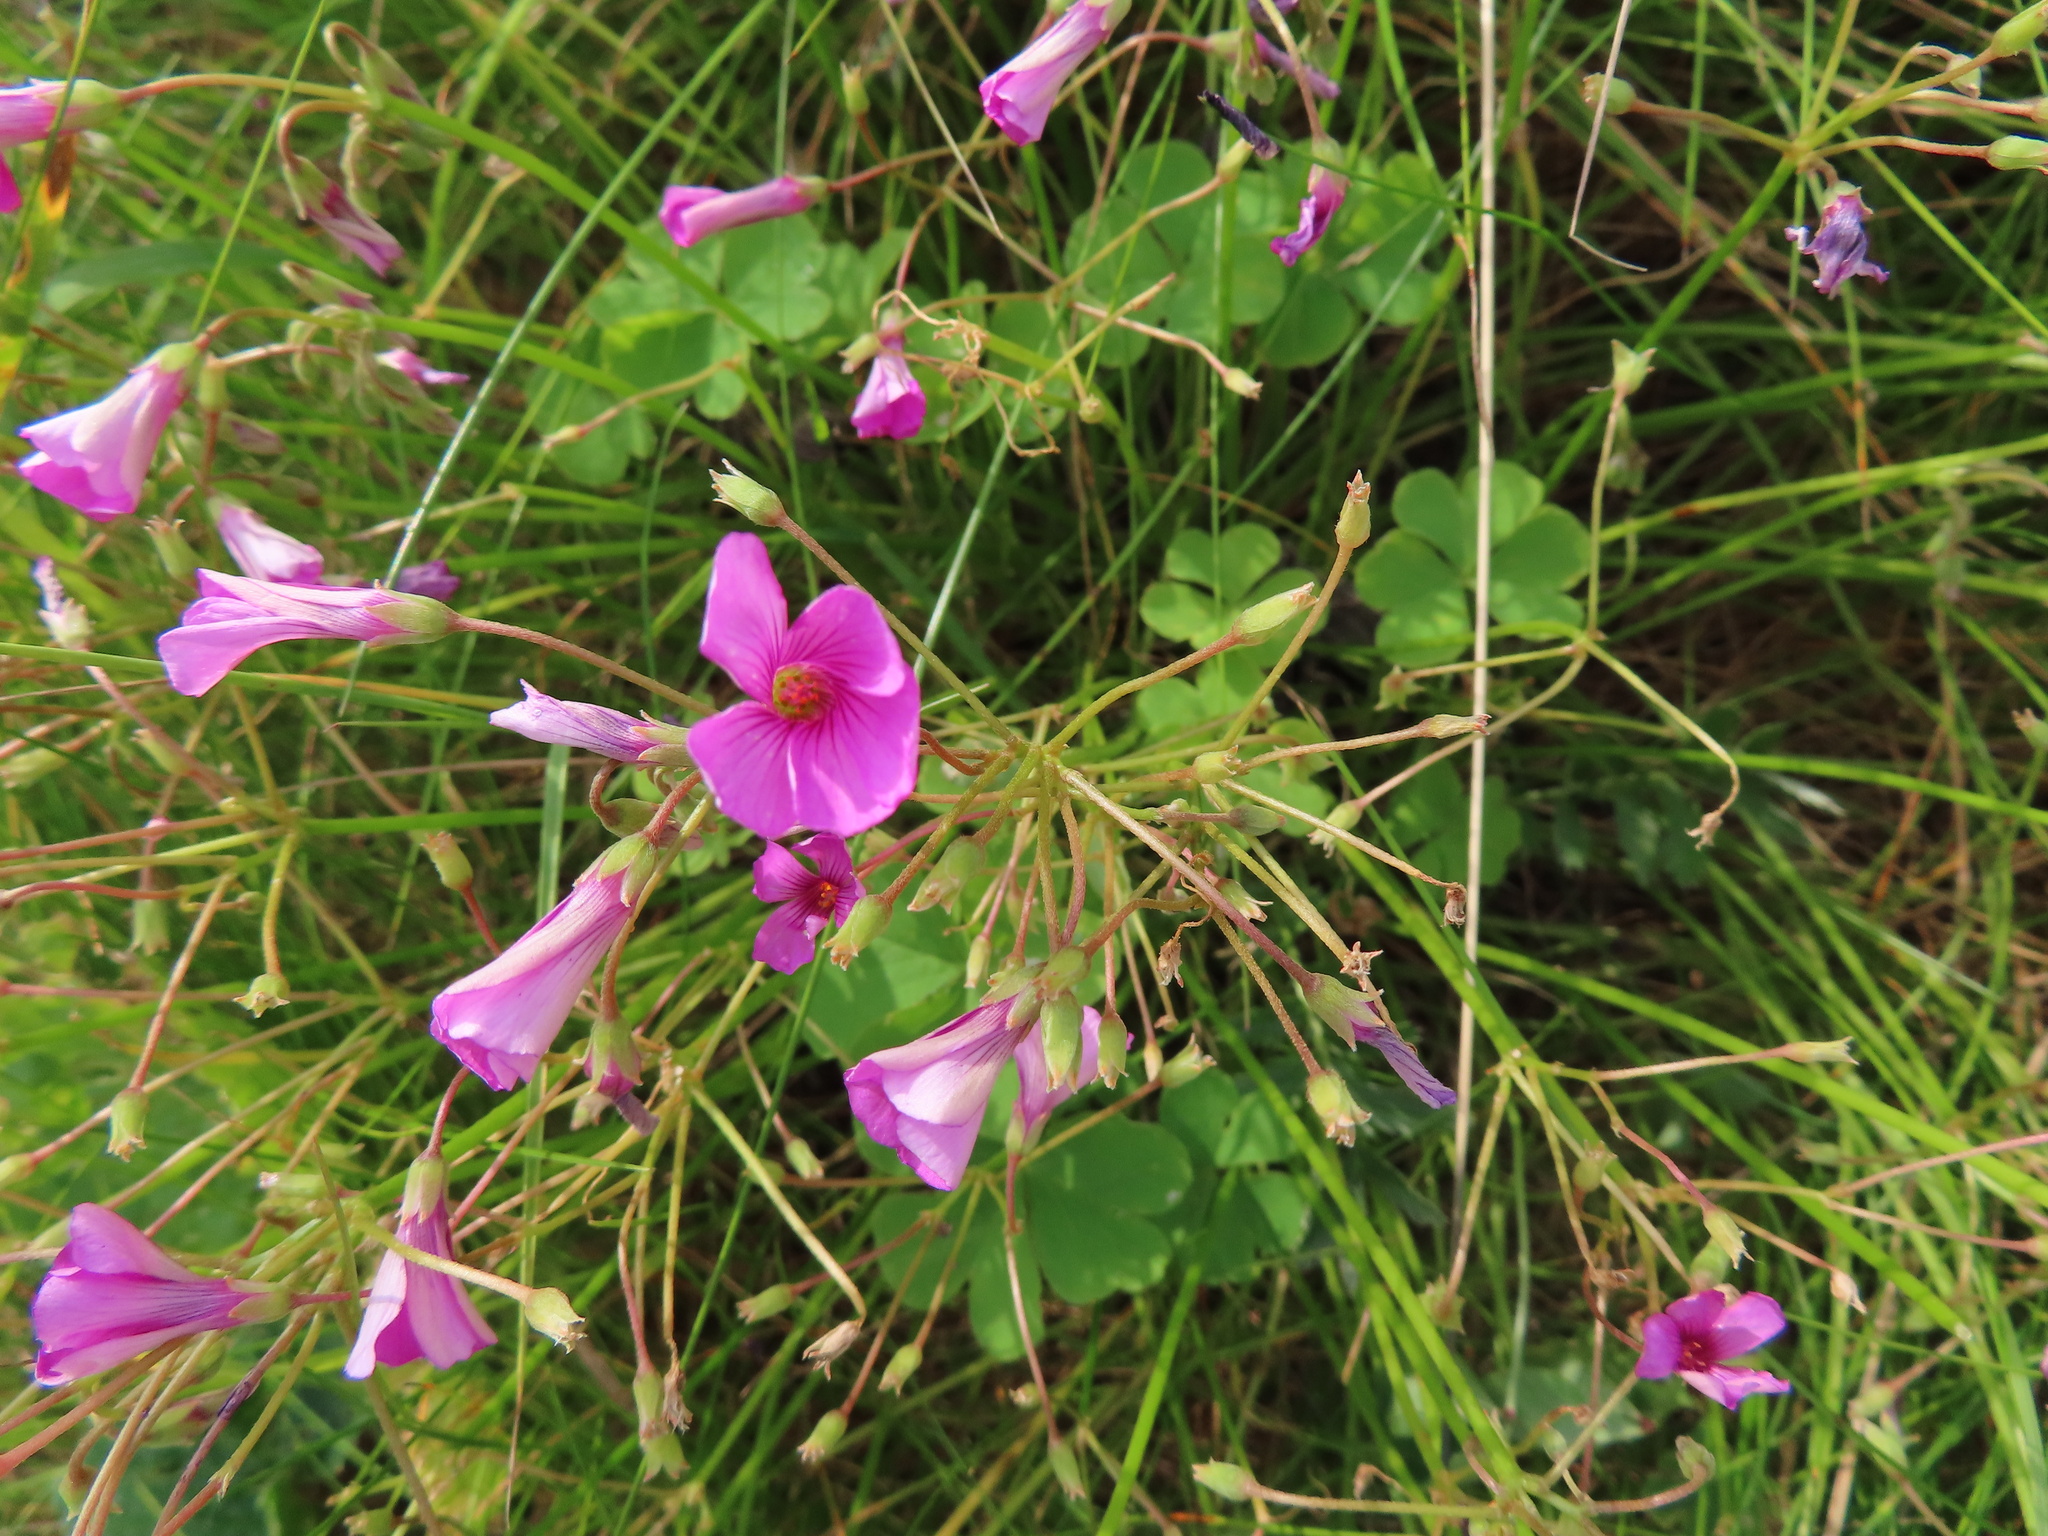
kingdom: Plantae
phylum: Tracheophyta
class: Magnoliopsida
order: Oxalidales
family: Oxalidaceae
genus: Oxalis
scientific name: Oxalis articulata
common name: Pink-sorrel
